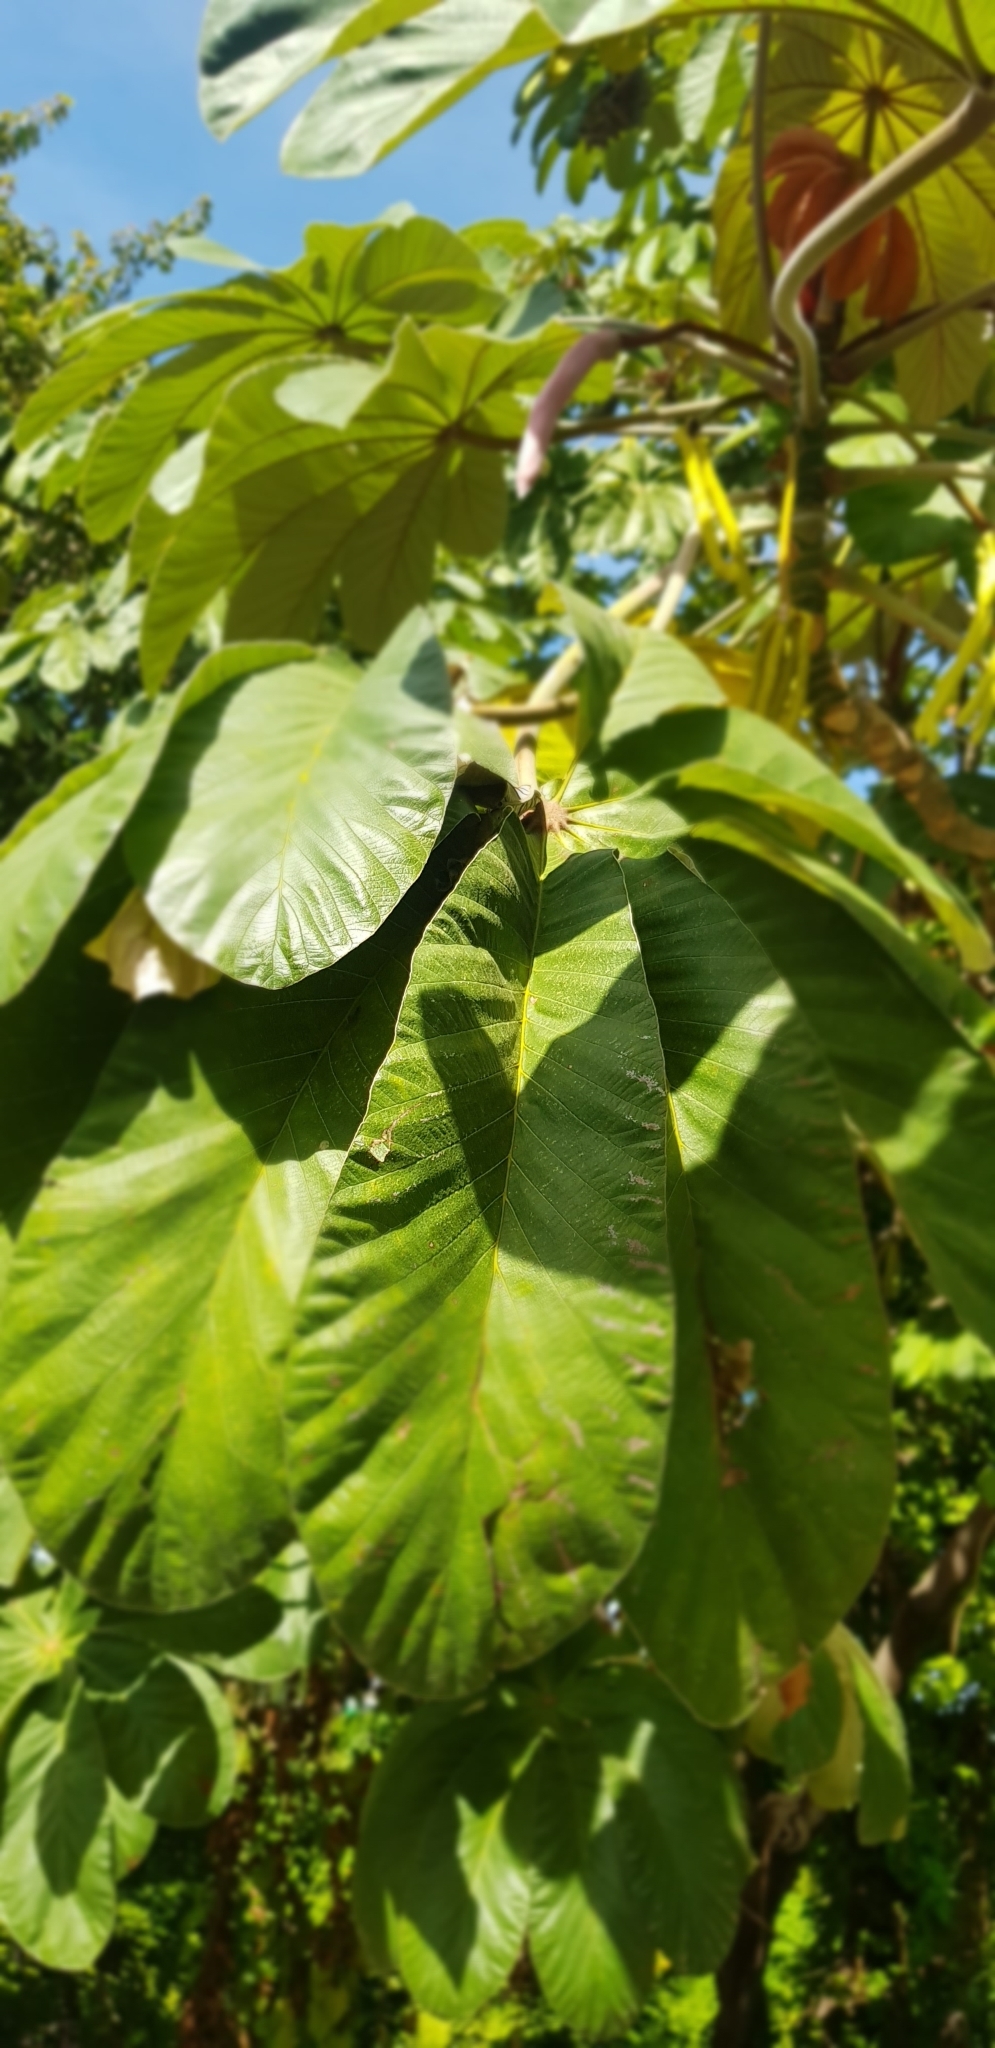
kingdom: Plantae
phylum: Tracheophyta
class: Magnoliopsida
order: Rosales
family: Urticaceae
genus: Cecropia
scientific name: Cecropia obtusifolia
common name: Trumpet tree
